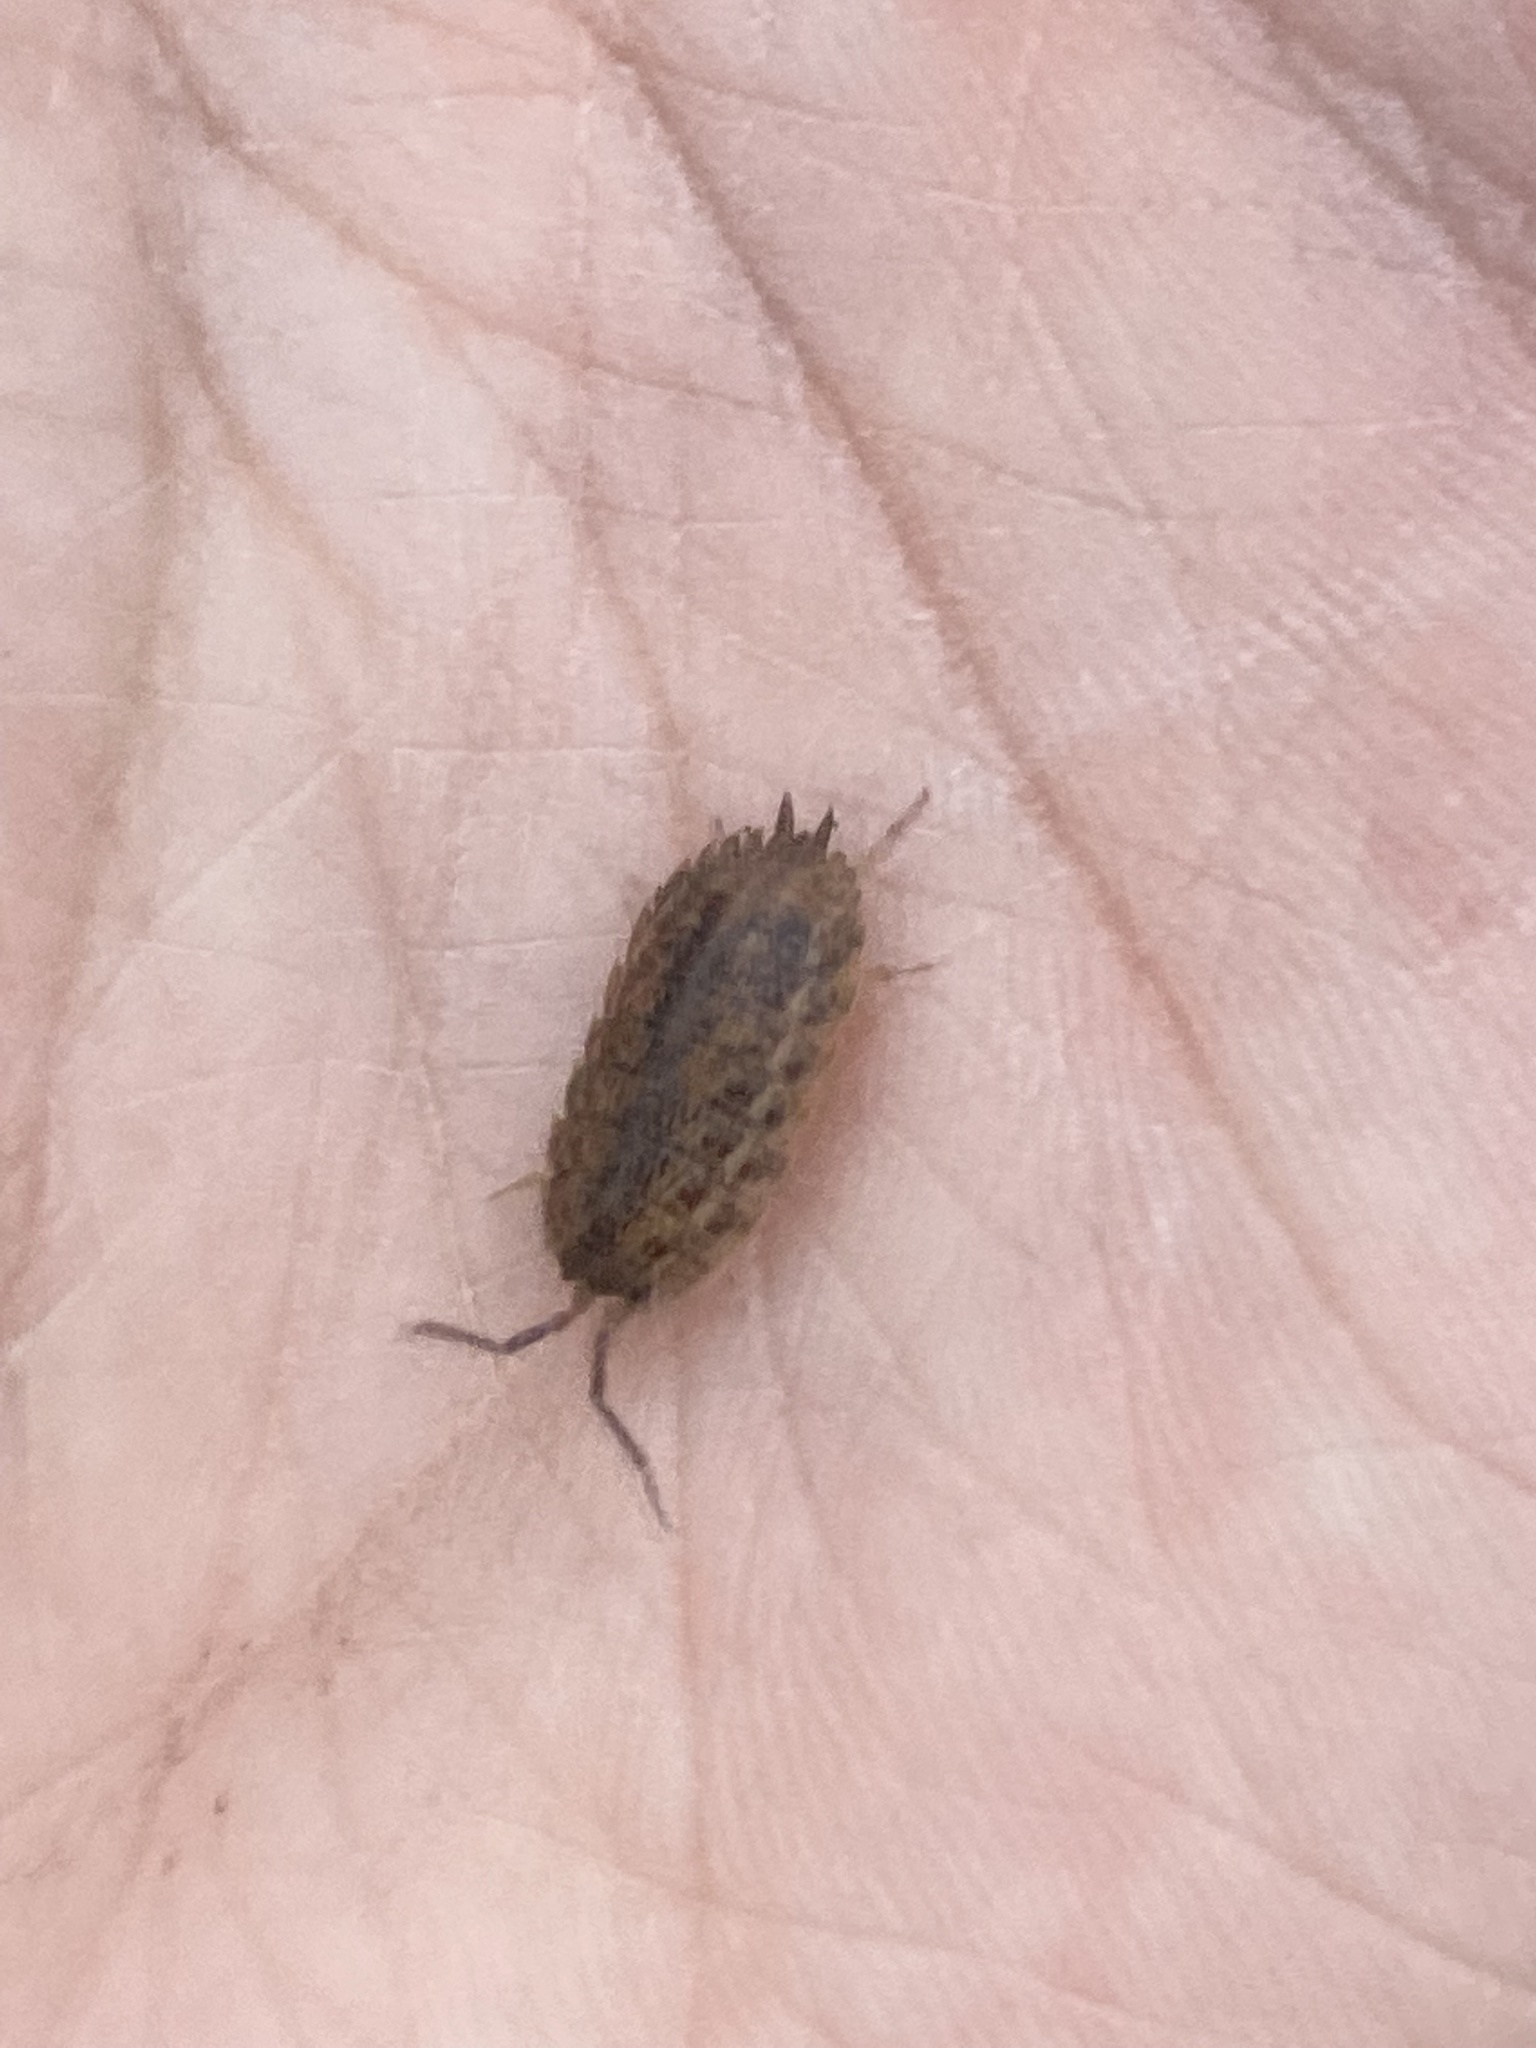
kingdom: Animalia
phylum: Arthropoda
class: Malacostraca
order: Isopoda
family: Trachelipodidae
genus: Trachelipus
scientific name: Trachelipus rathkii
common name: Isopod
